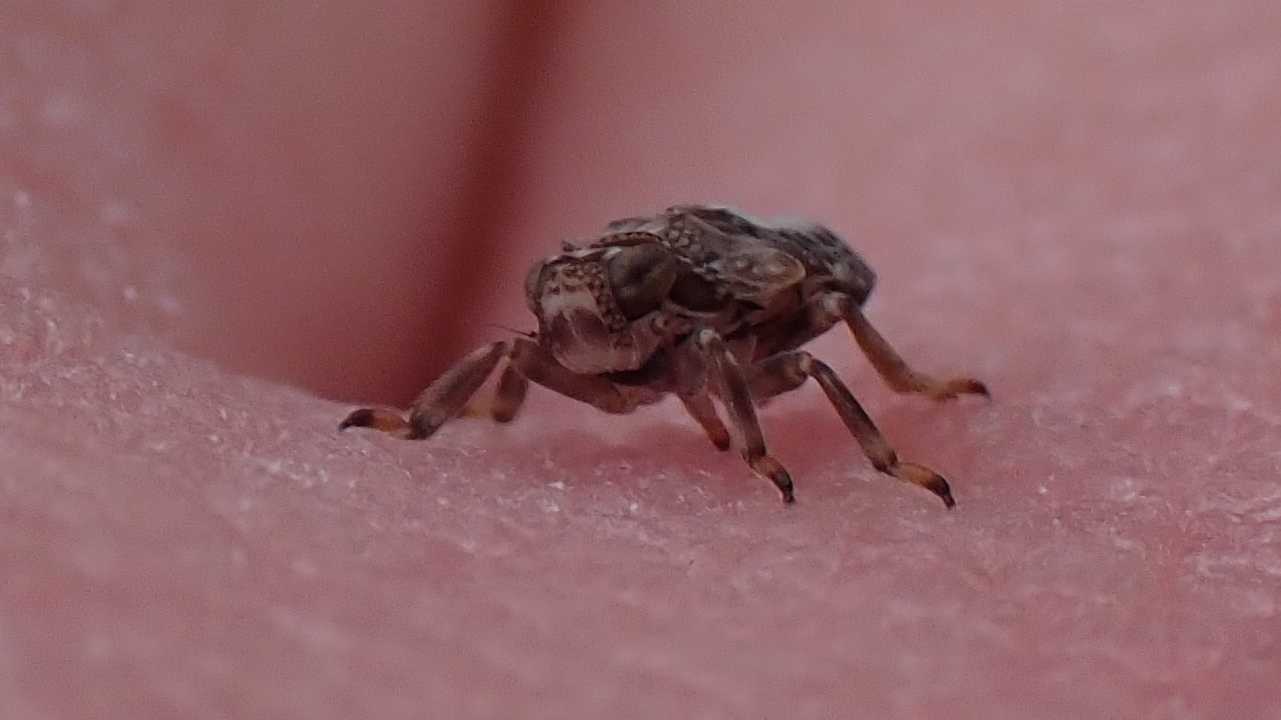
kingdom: Animalia
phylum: Arthropoda
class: Insecta
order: Hemiptera
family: Issidae
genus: Issus
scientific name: Issus coleoptratus
